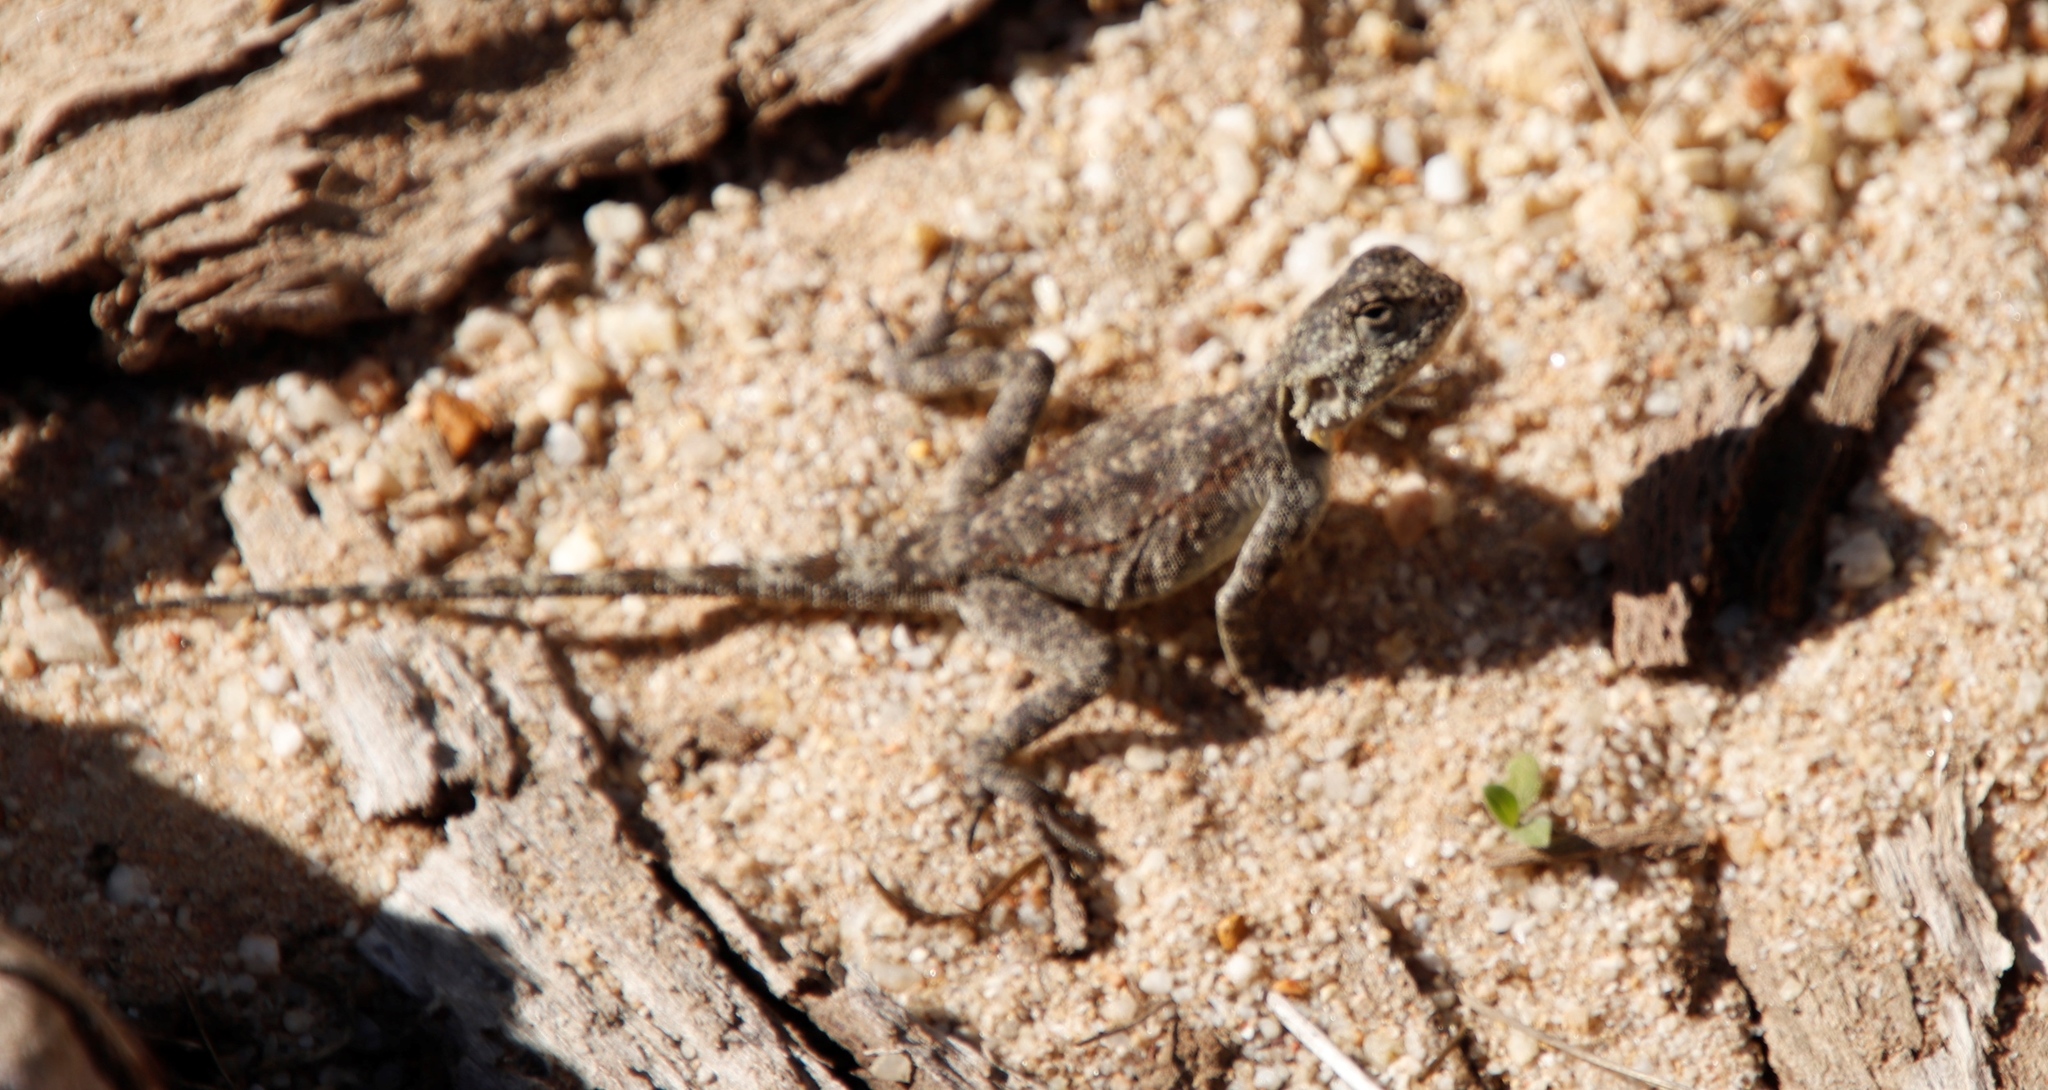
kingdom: Animalia
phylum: Chordata
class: Squamata
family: Agamidae
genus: Agama
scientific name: Agama atra
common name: Southern african rock agama
